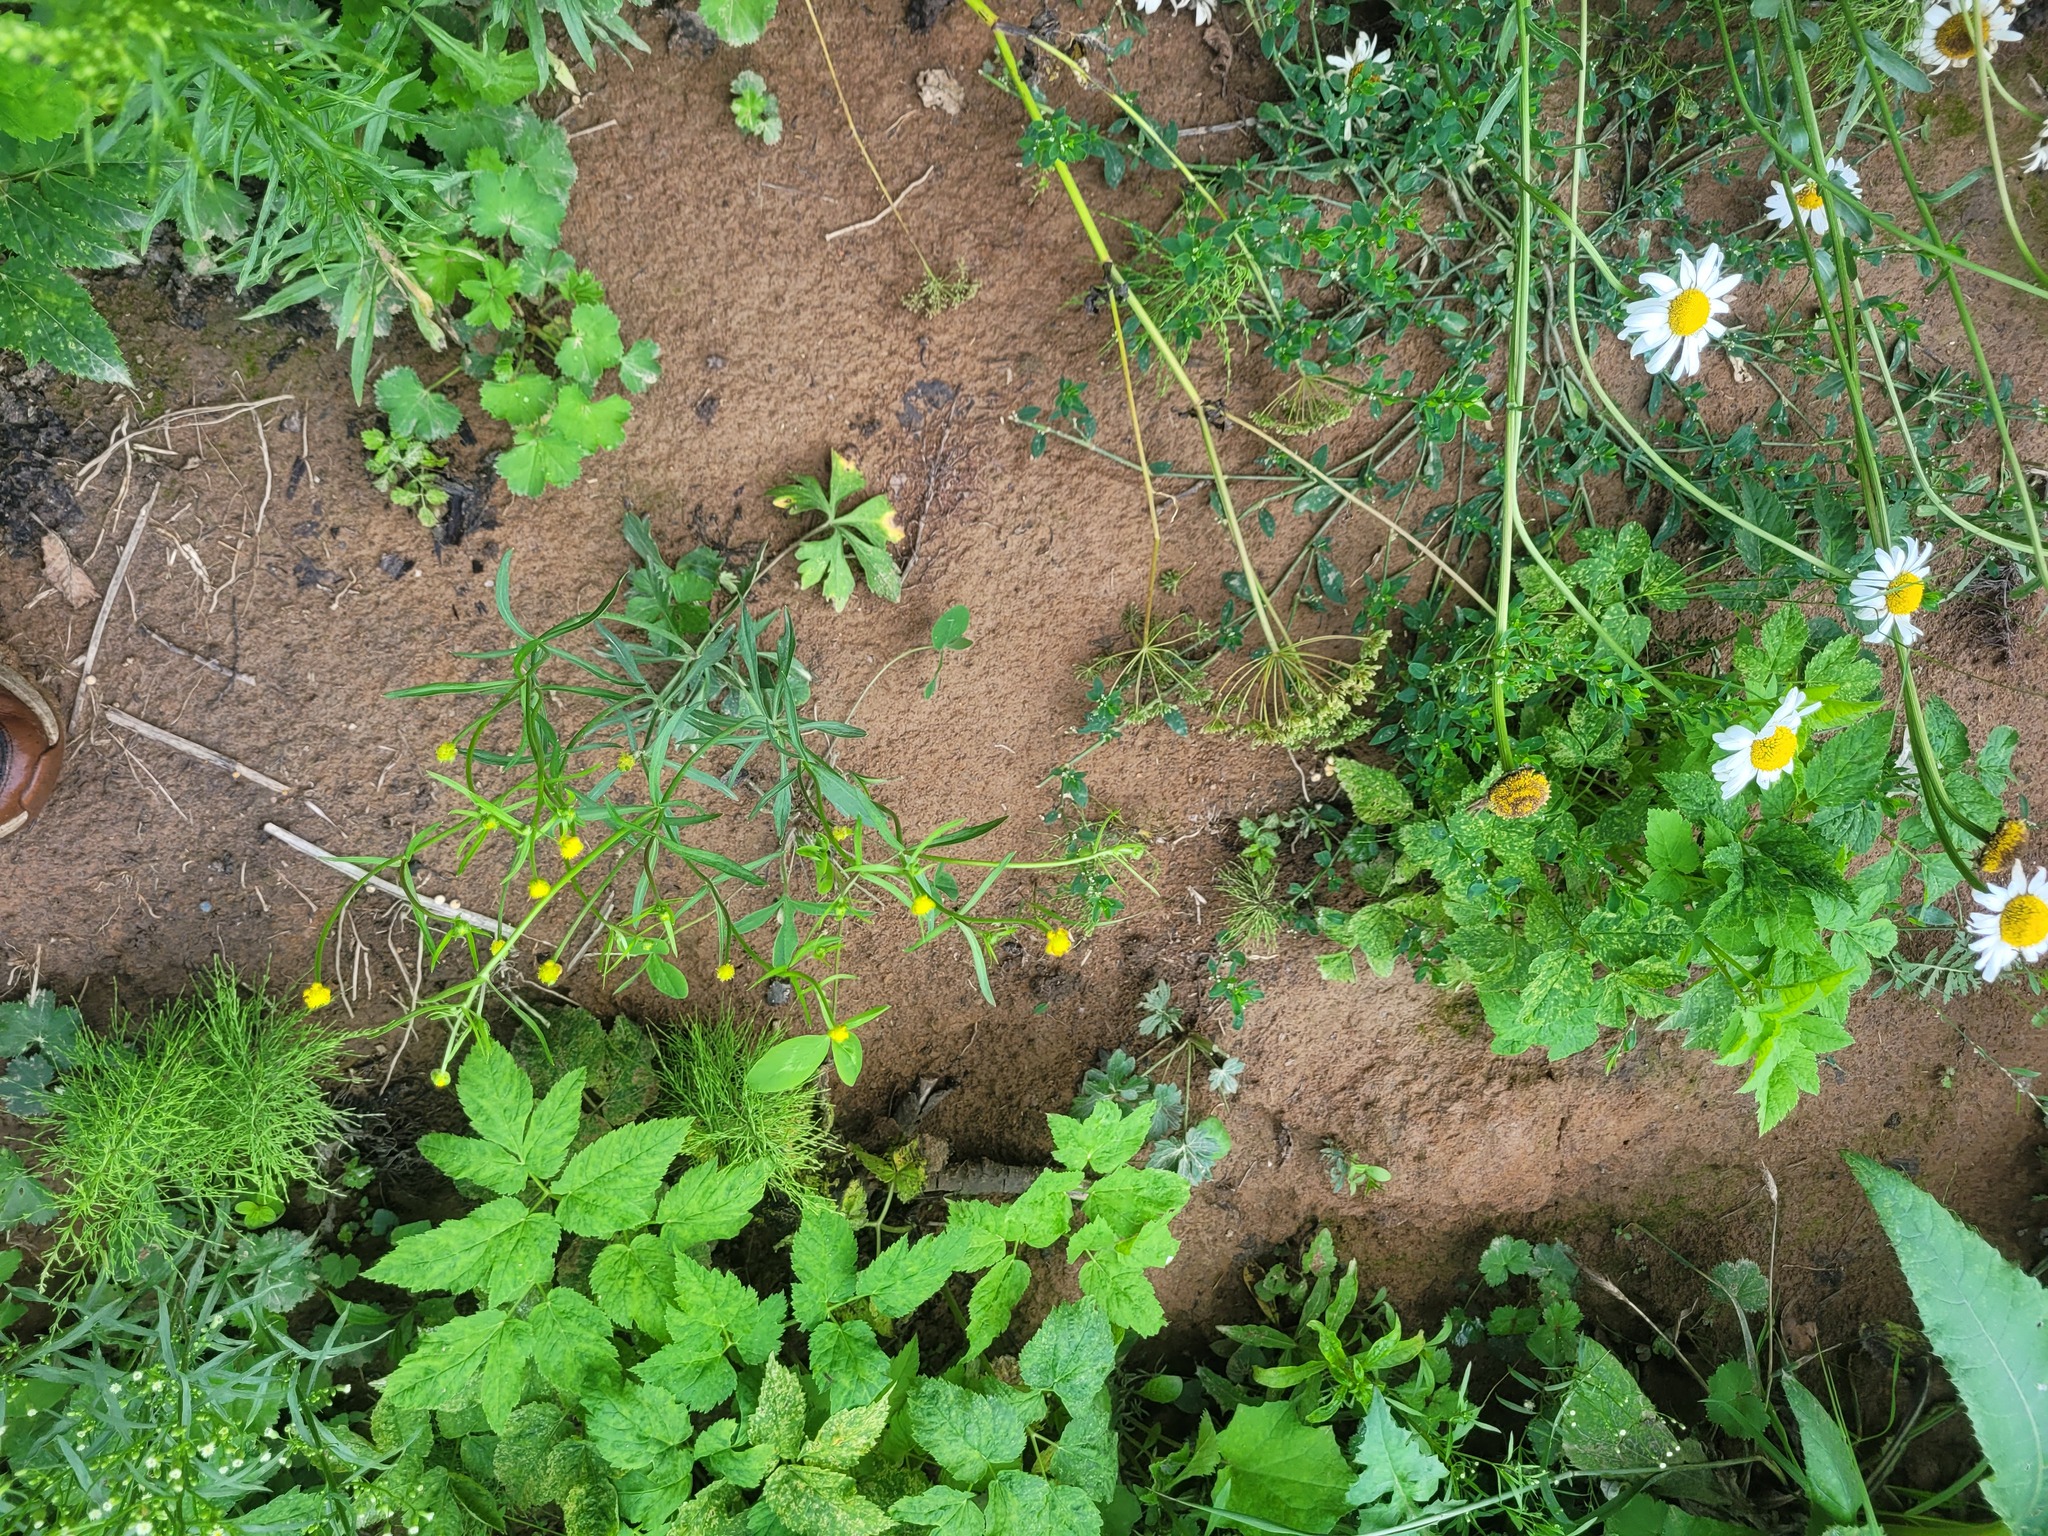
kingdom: Plantae
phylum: Tracheophyta
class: Magnoliopsida
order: Ranunculales
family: Ranunculaceae
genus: Ranunculus
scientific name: Ranunculus auricomus
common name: Goldilocks buttercup
